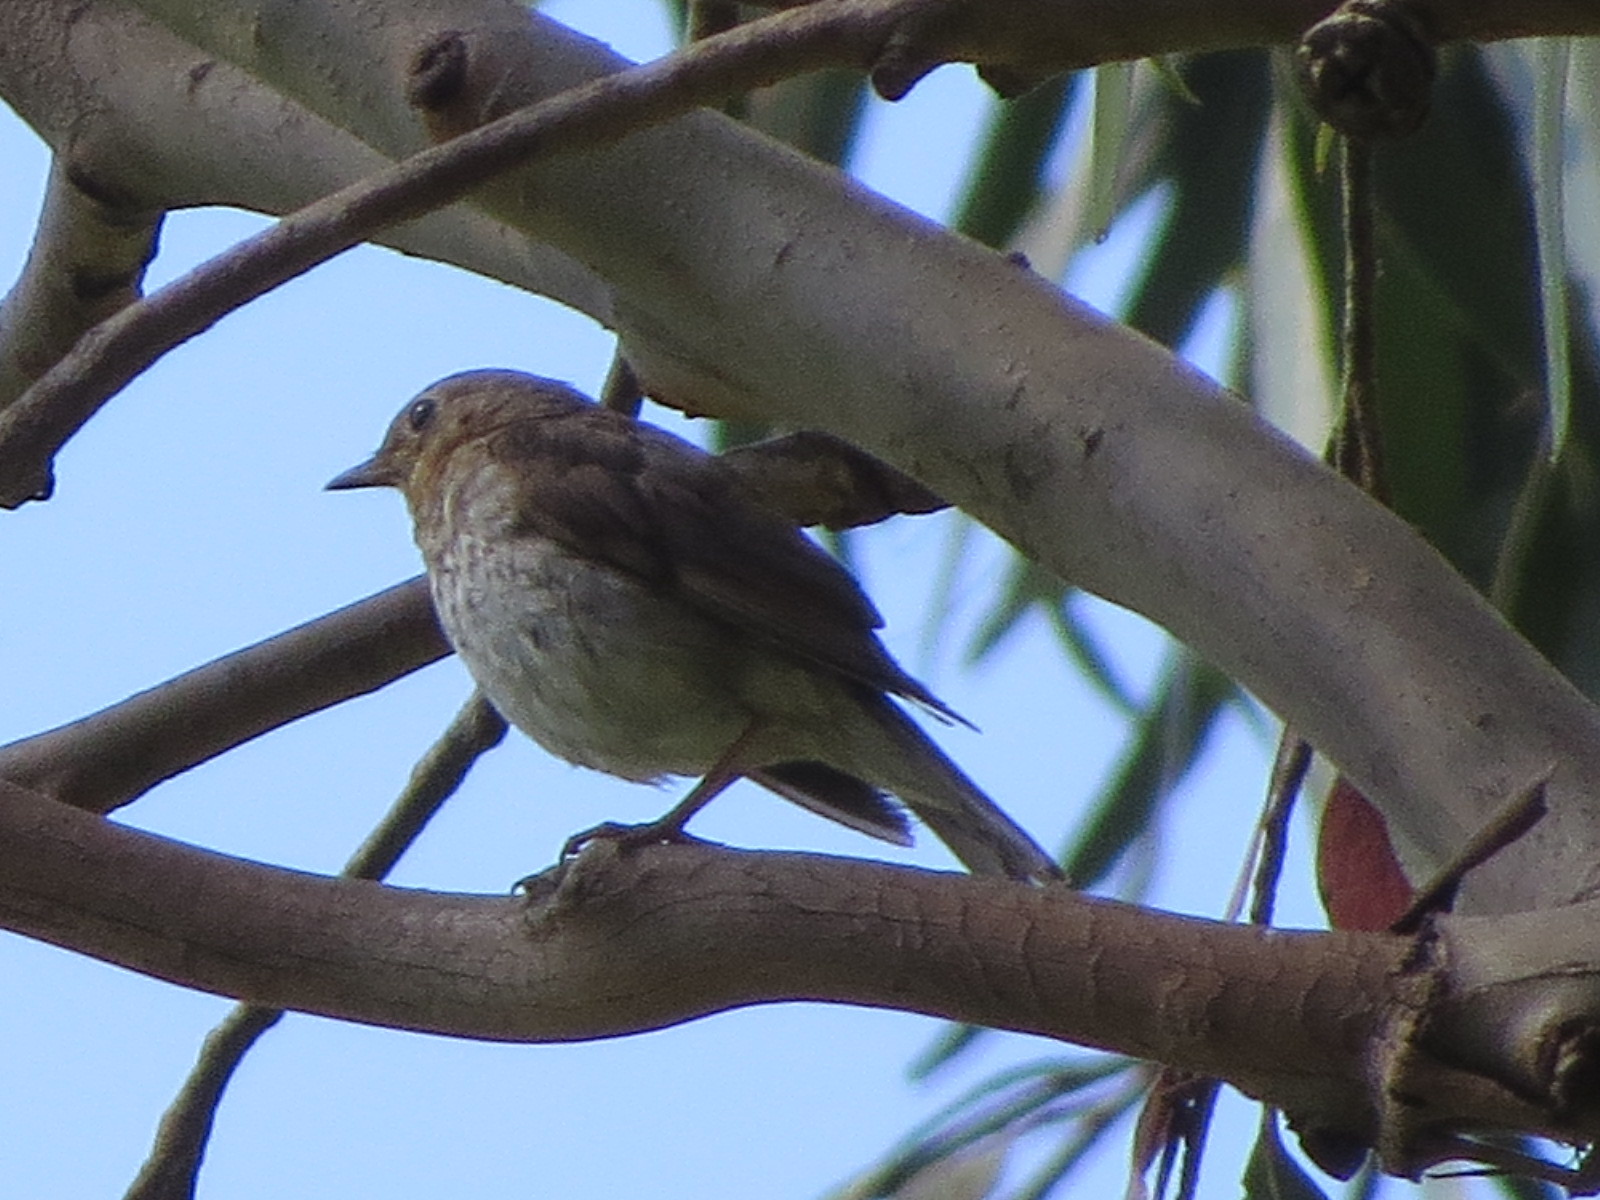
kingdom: Animalia
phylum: Chordata
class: Aves
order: Passeriformes
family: Turdidae
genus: Catharus
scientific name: Catharus ustulatus
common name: Swainson's thrush
